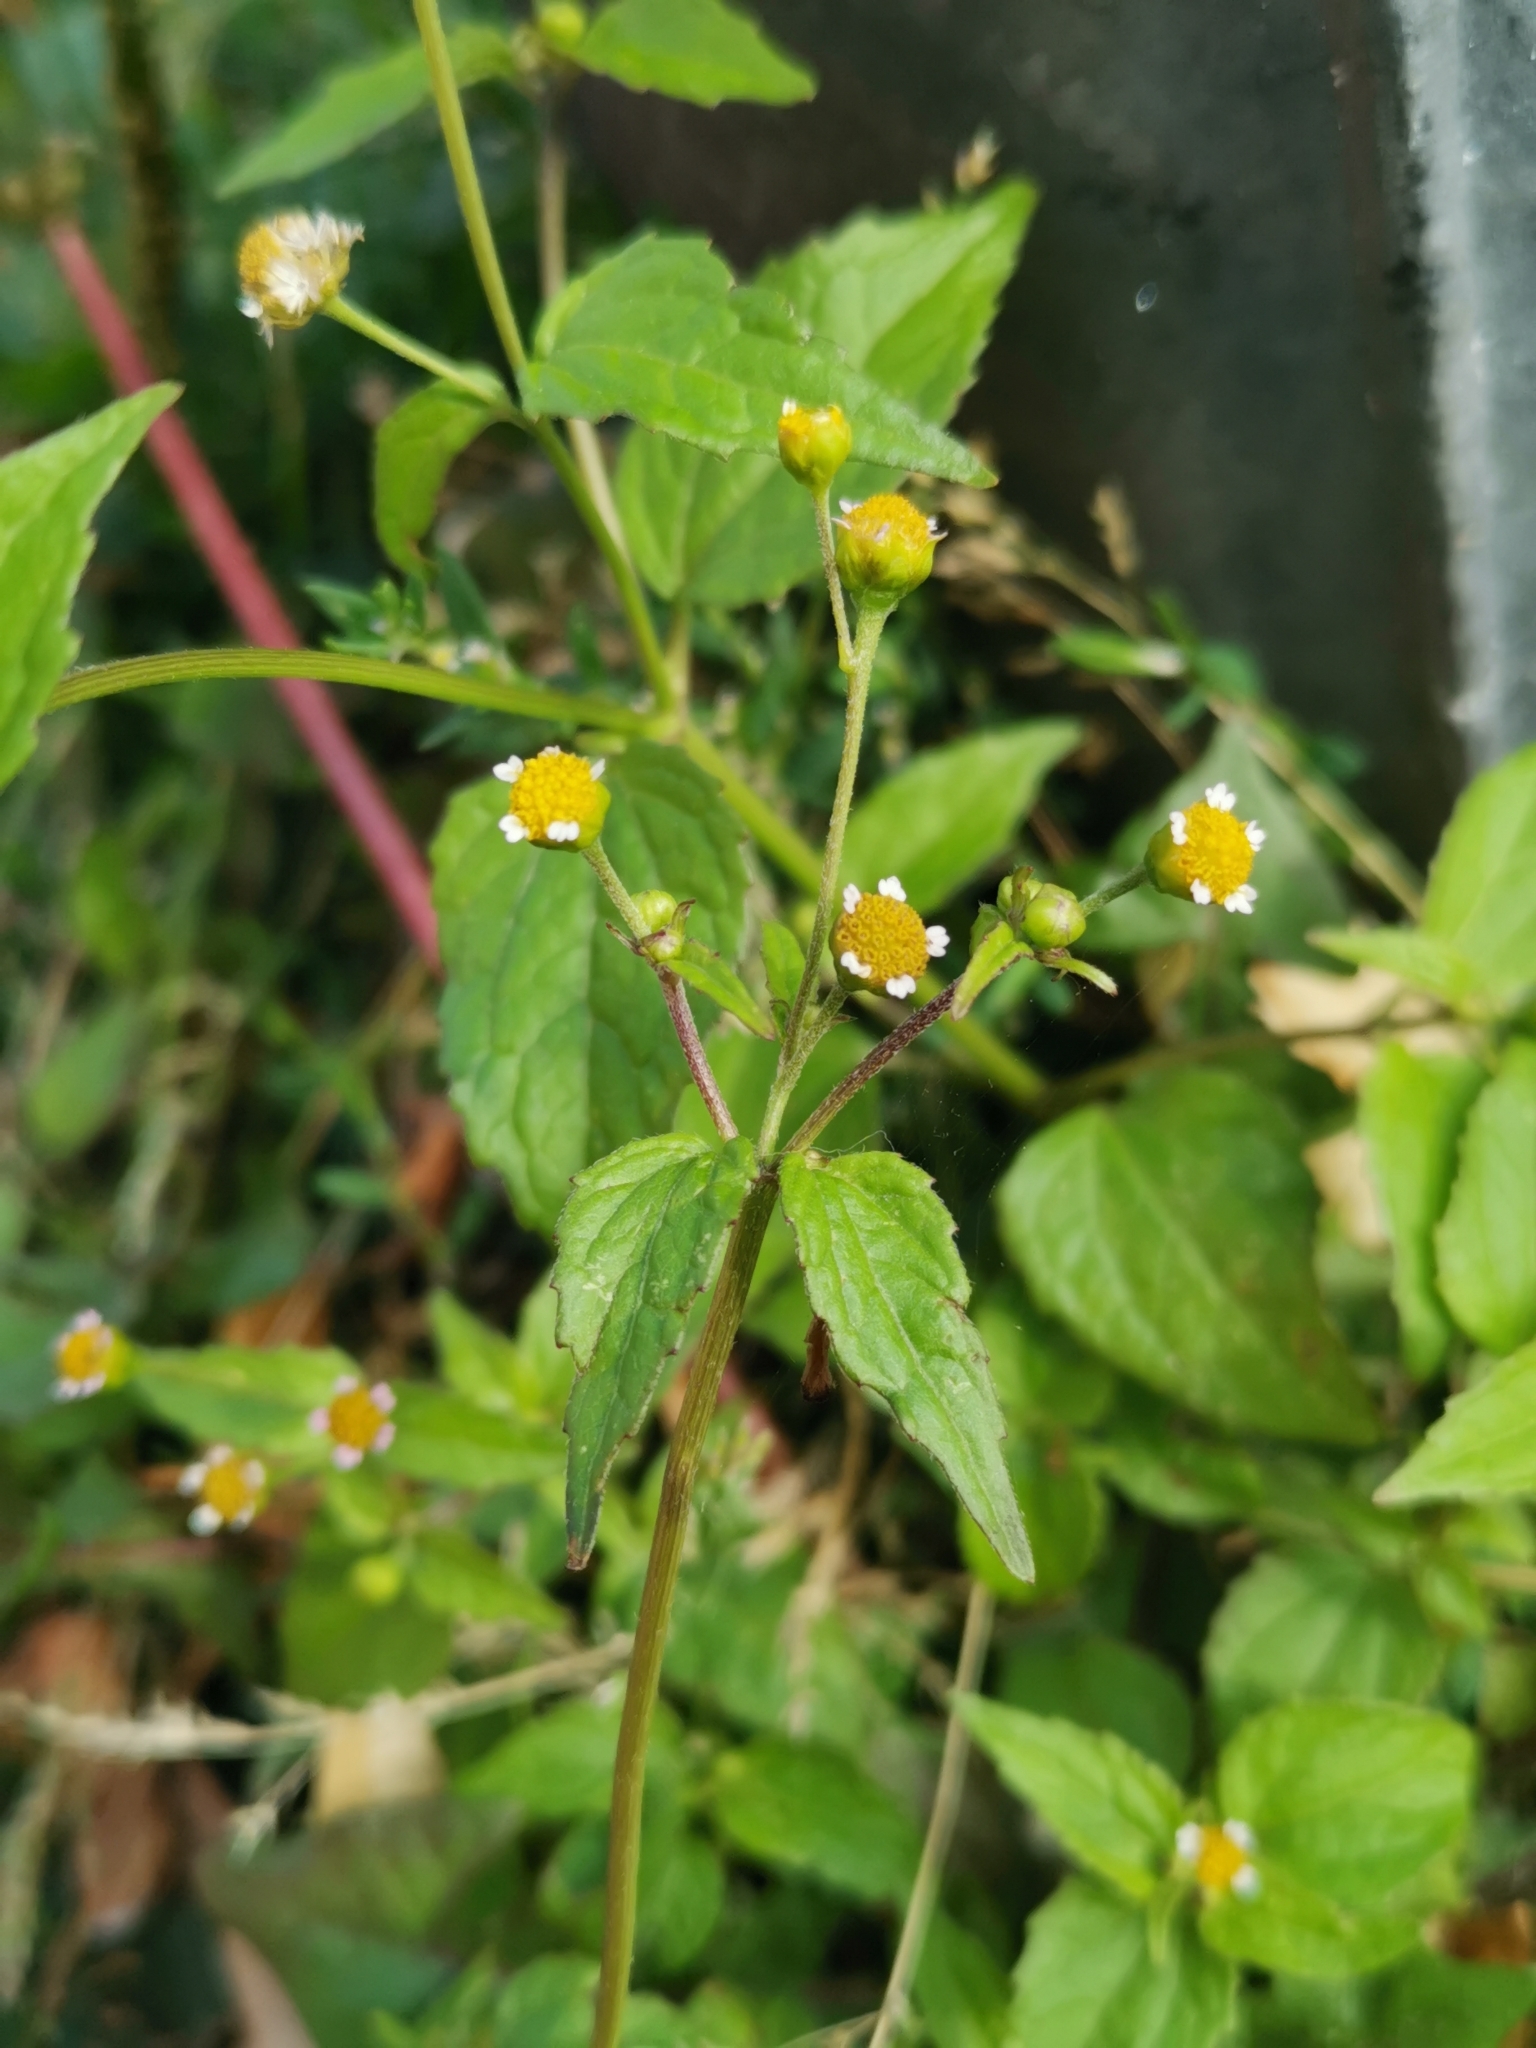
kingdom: Plantae
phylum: Tracheophyta
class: Magnoliopsida
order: Asterales
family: Asteraceae
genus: Galinsoga
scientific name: Galinsoga parviflora
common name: Gallant soldier
